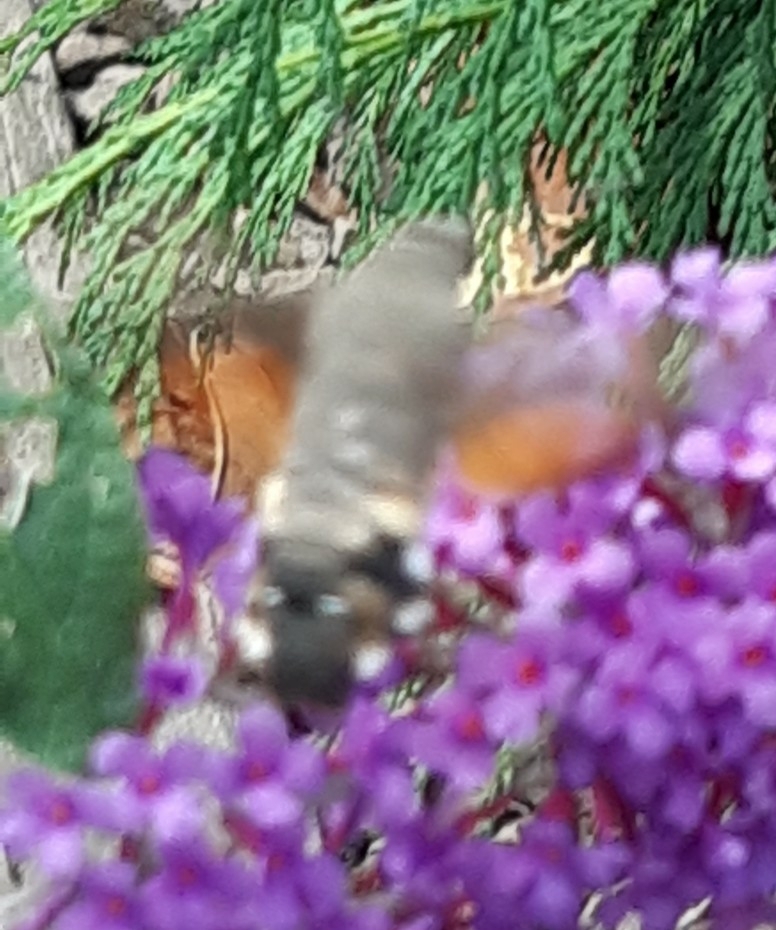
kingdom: Animalia
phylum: Arthropoda
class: Insecta
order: Lepidoptera
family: Sphingidae
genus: Macroglossum
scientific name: Macroglossum stellatarum
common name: Humming-bird hawk-moth
